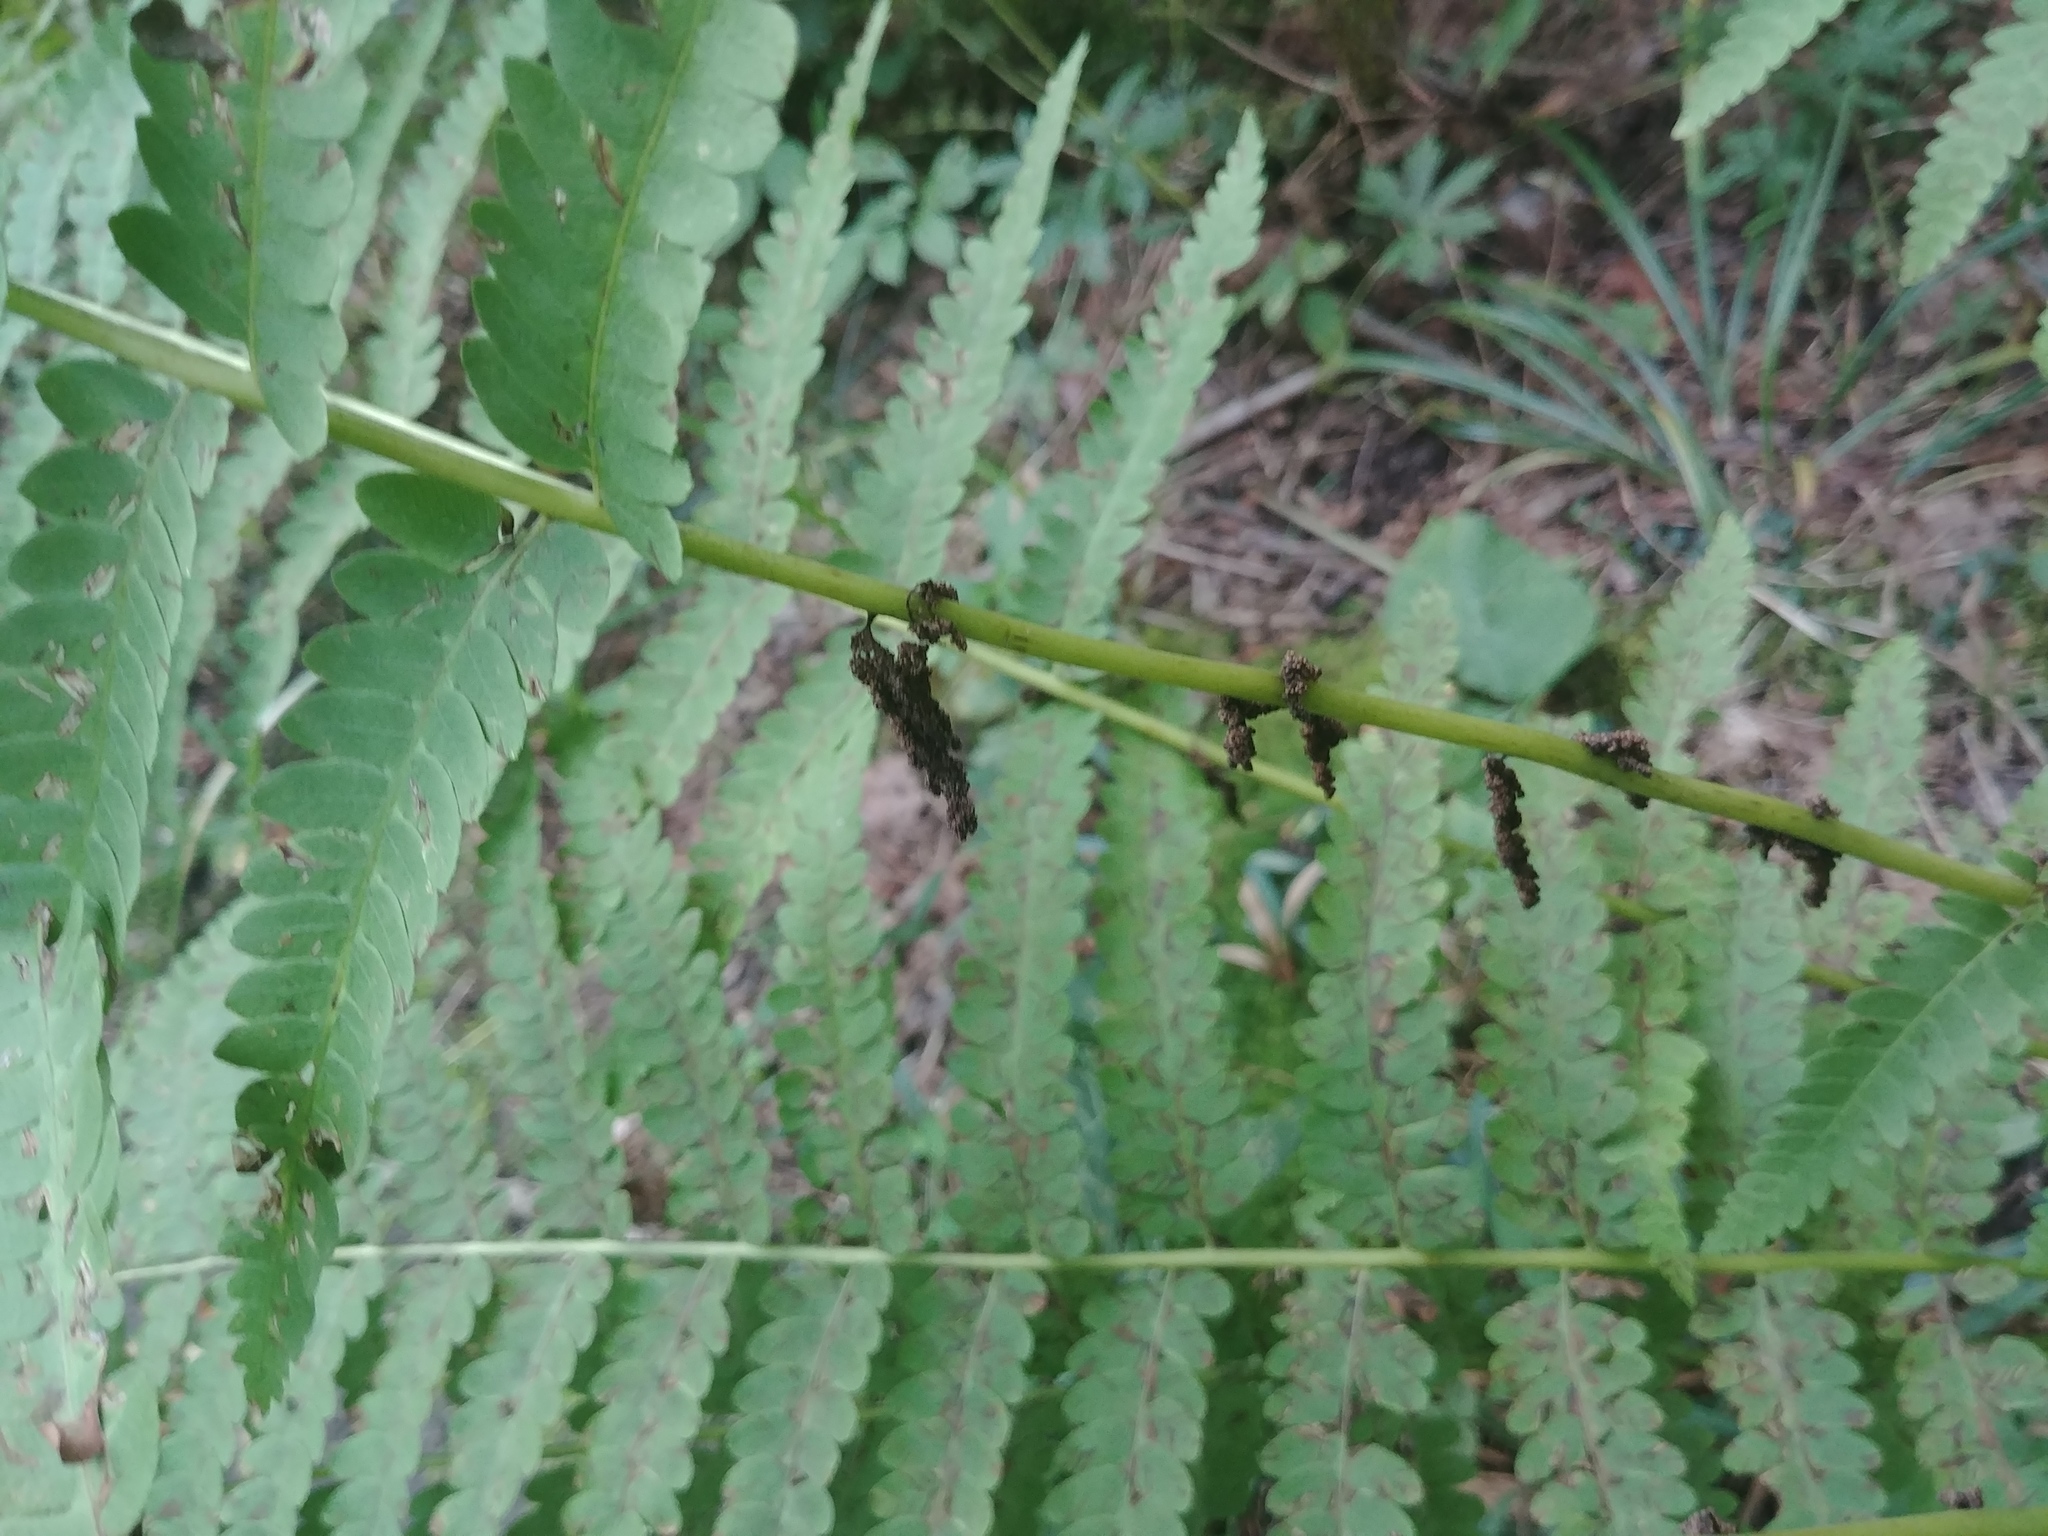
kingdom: Plantae
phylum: Tracheophyta
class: Polypodiopsida
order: Osmundales
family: Osmundaceae
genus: Claytosmunda
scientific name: Claytosmunda claytoniana
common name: Clayton's fern
